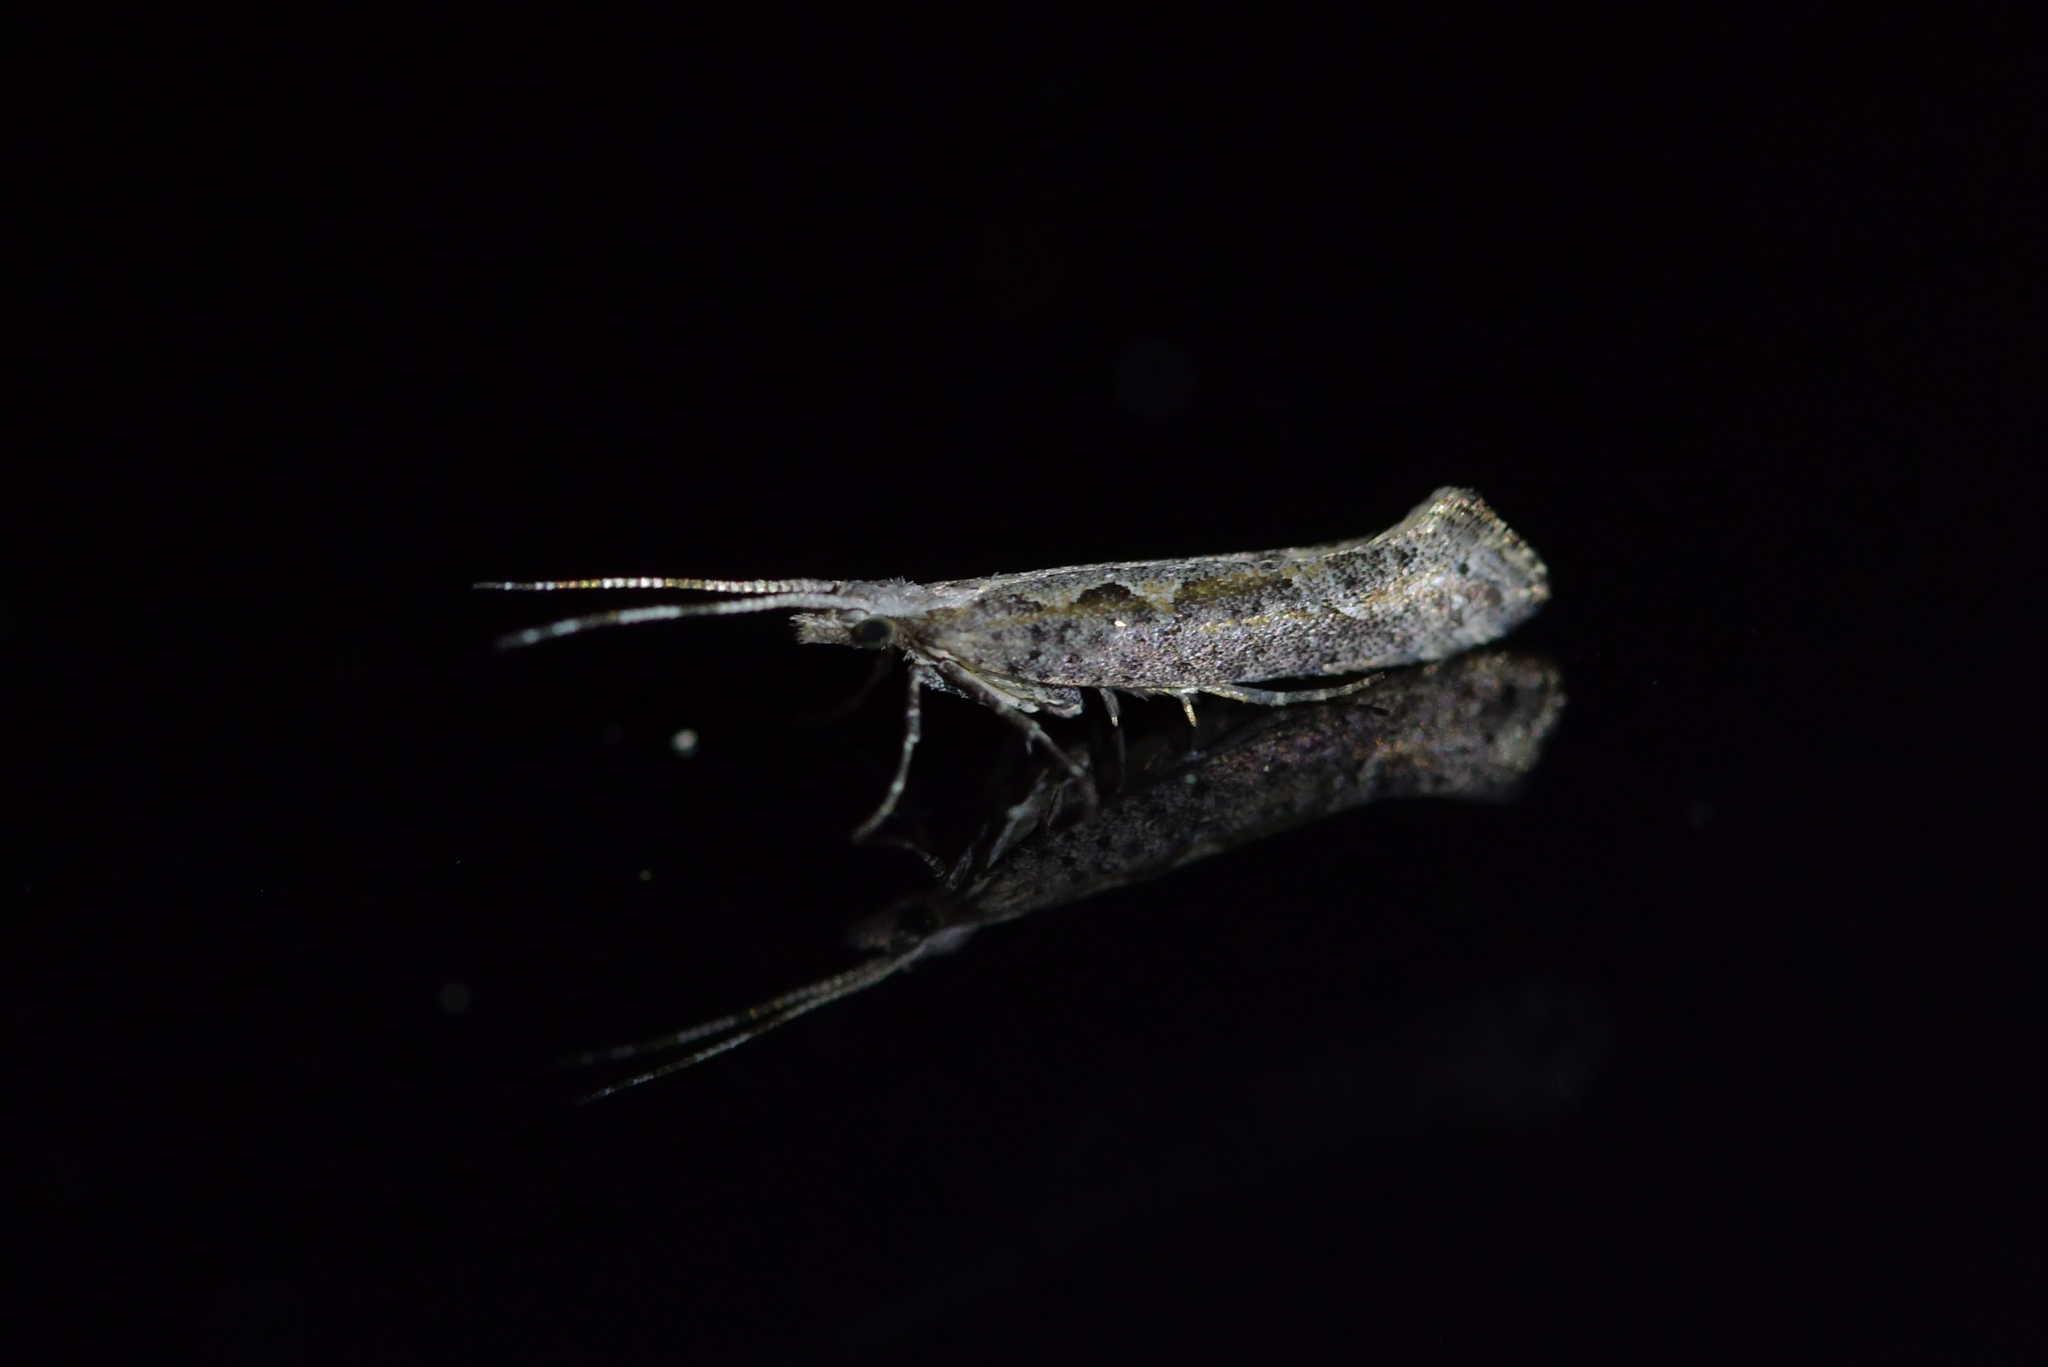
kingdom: Animalia
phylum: Arthropoda
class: Insecta
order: Lepidoptera
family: Plutellidae
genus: Plutella
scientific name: Plutella xylostella
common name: Diamond-back moth
